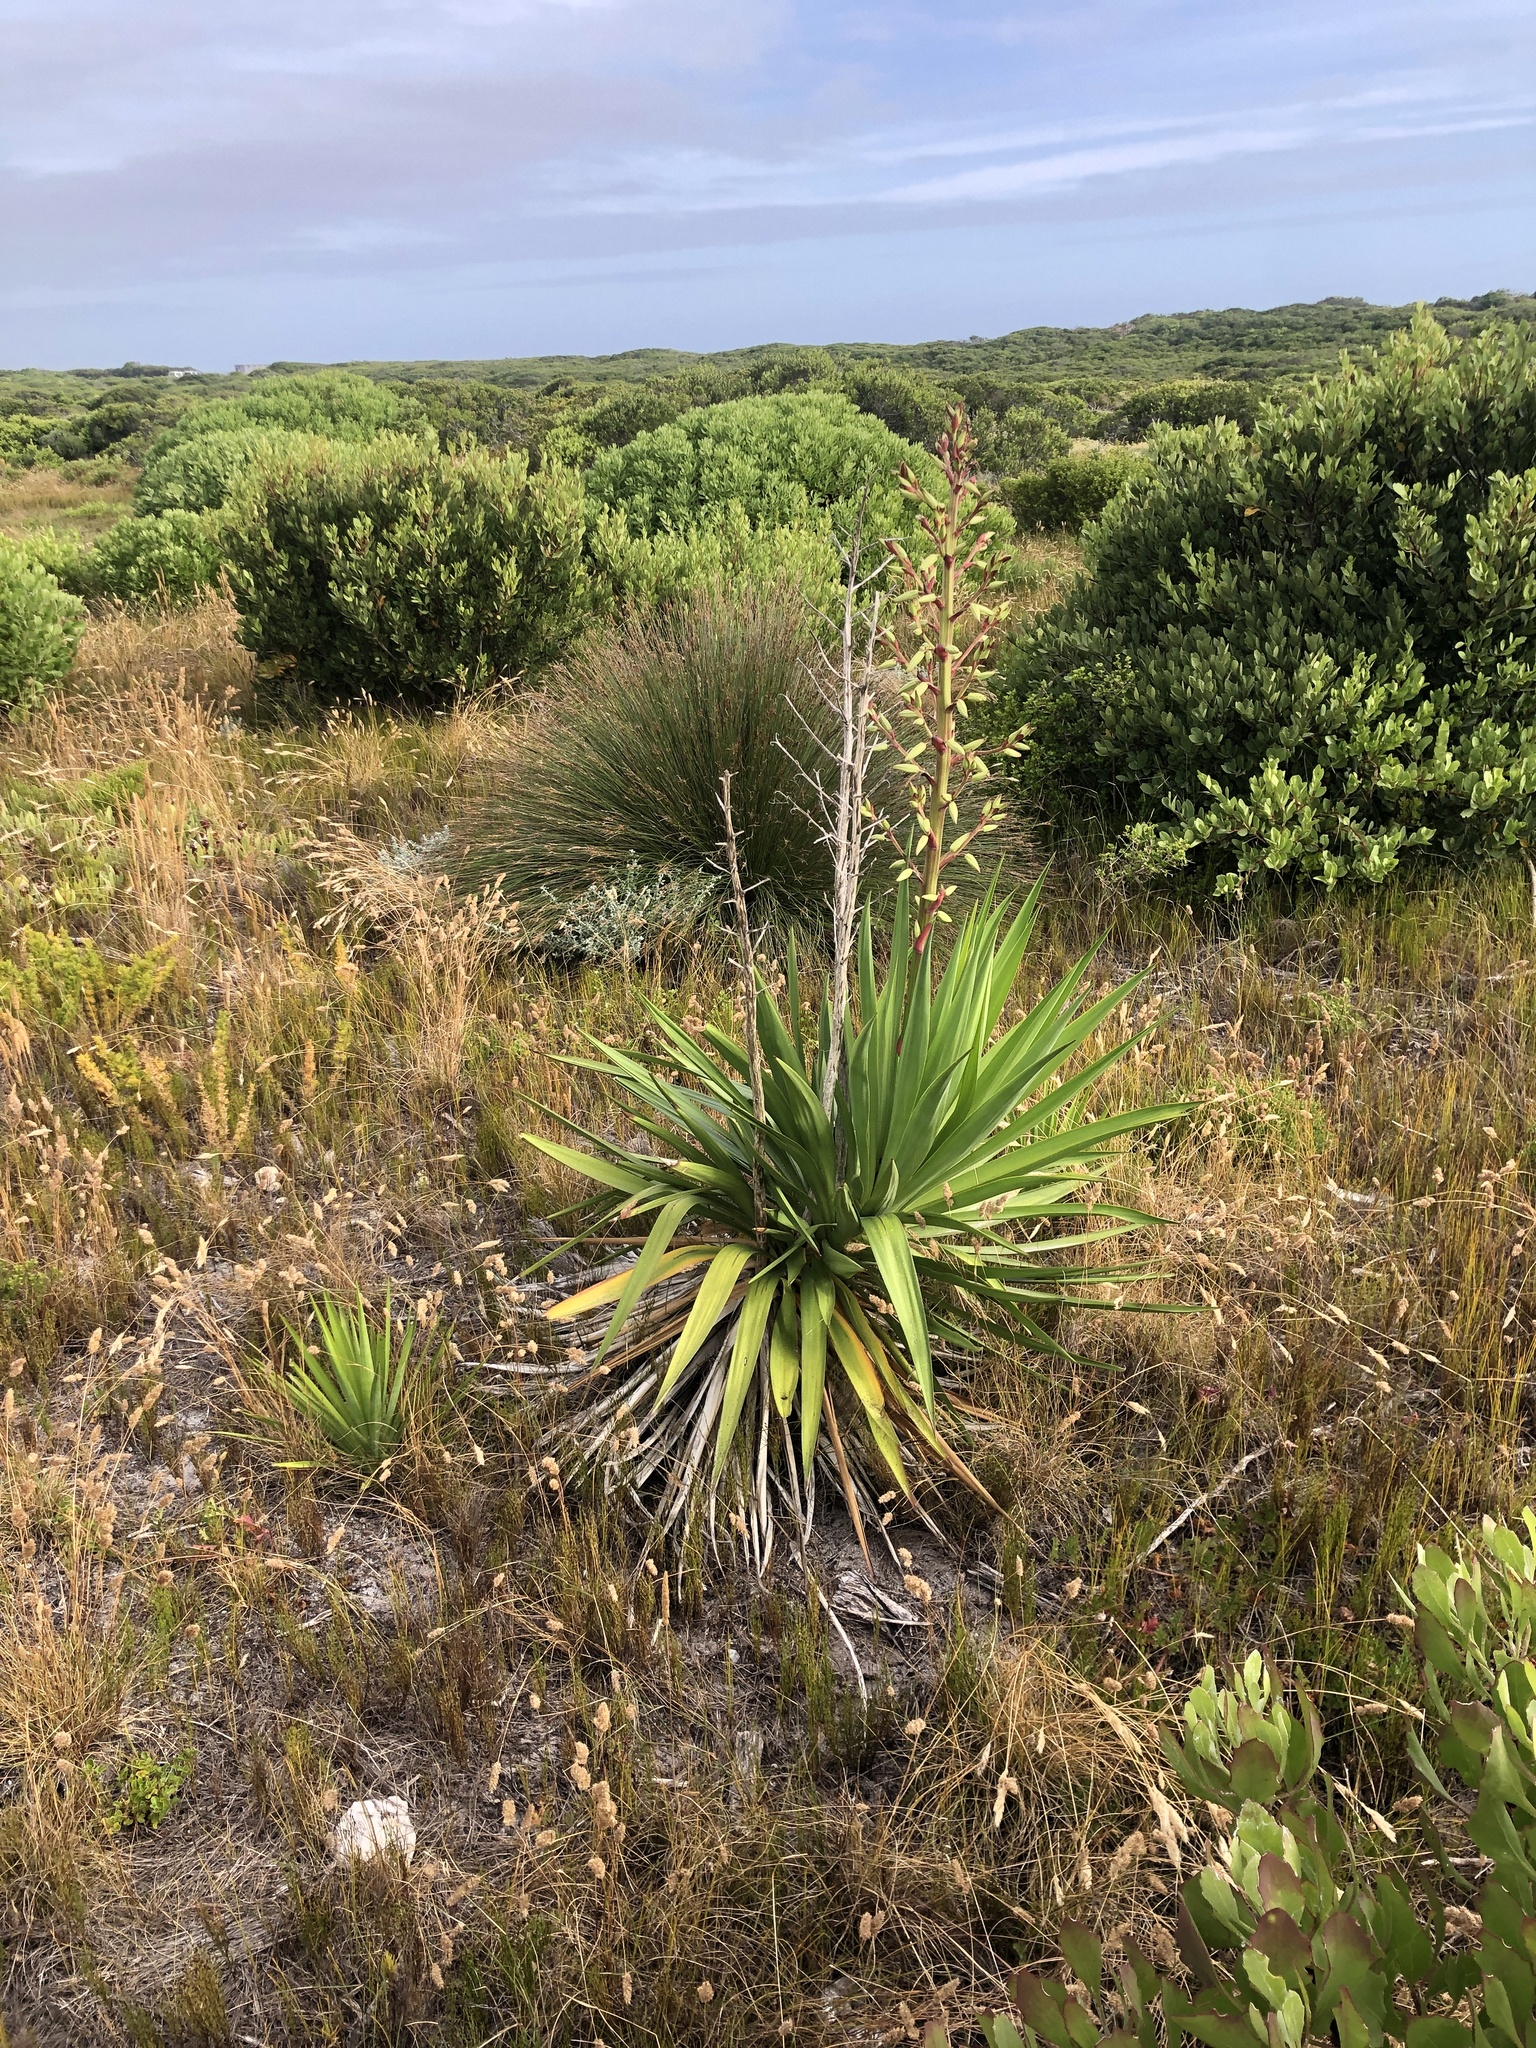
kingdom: Plantae
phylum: Tracheophyta
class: Liliopsida
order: Asparagales
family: Asparagaceae
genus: Yucca
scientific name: Yucca gloriosa
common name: Spanish-dagger
